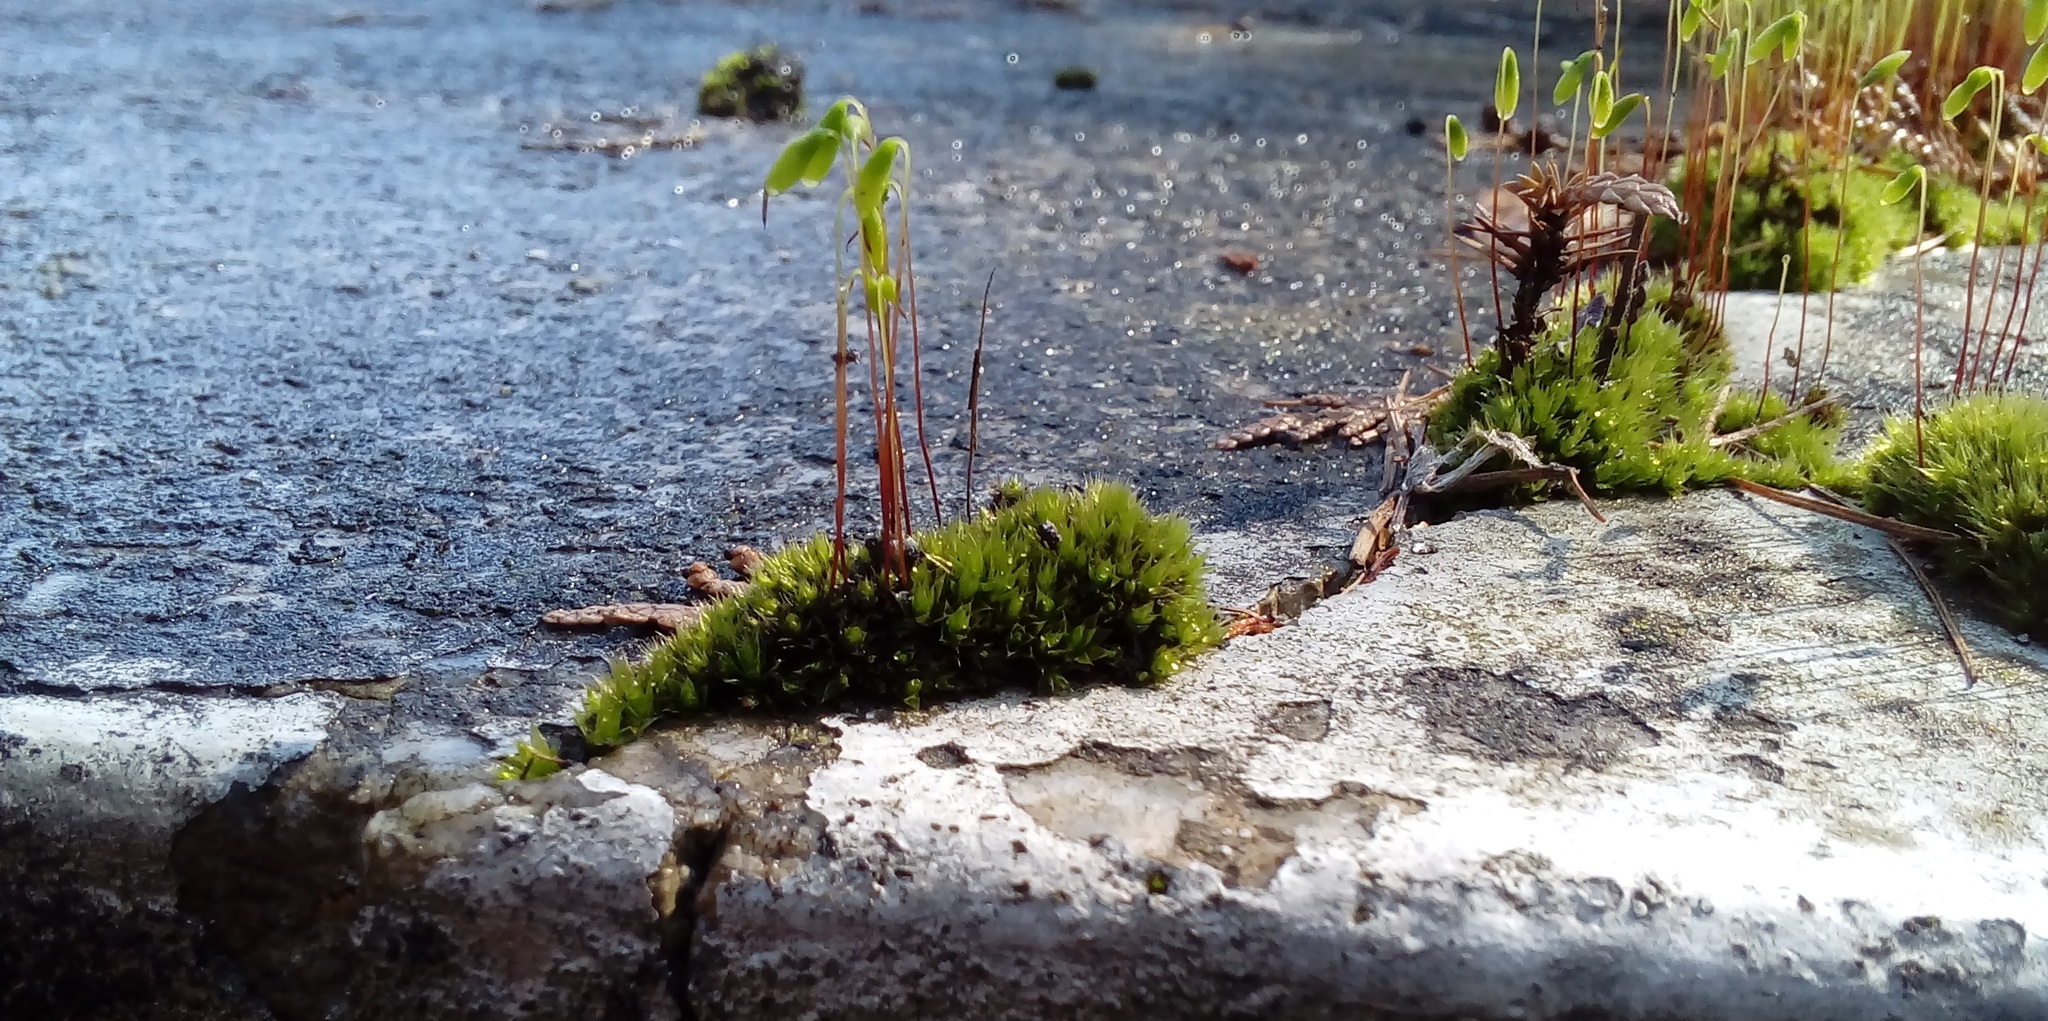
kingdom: Plantae
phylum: Bryophyta
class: Bryopsida
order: Bryales
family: Bryaceae
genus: Rosulabryum
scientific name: Rosulabryum capillare
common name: Capillary thread-moss
